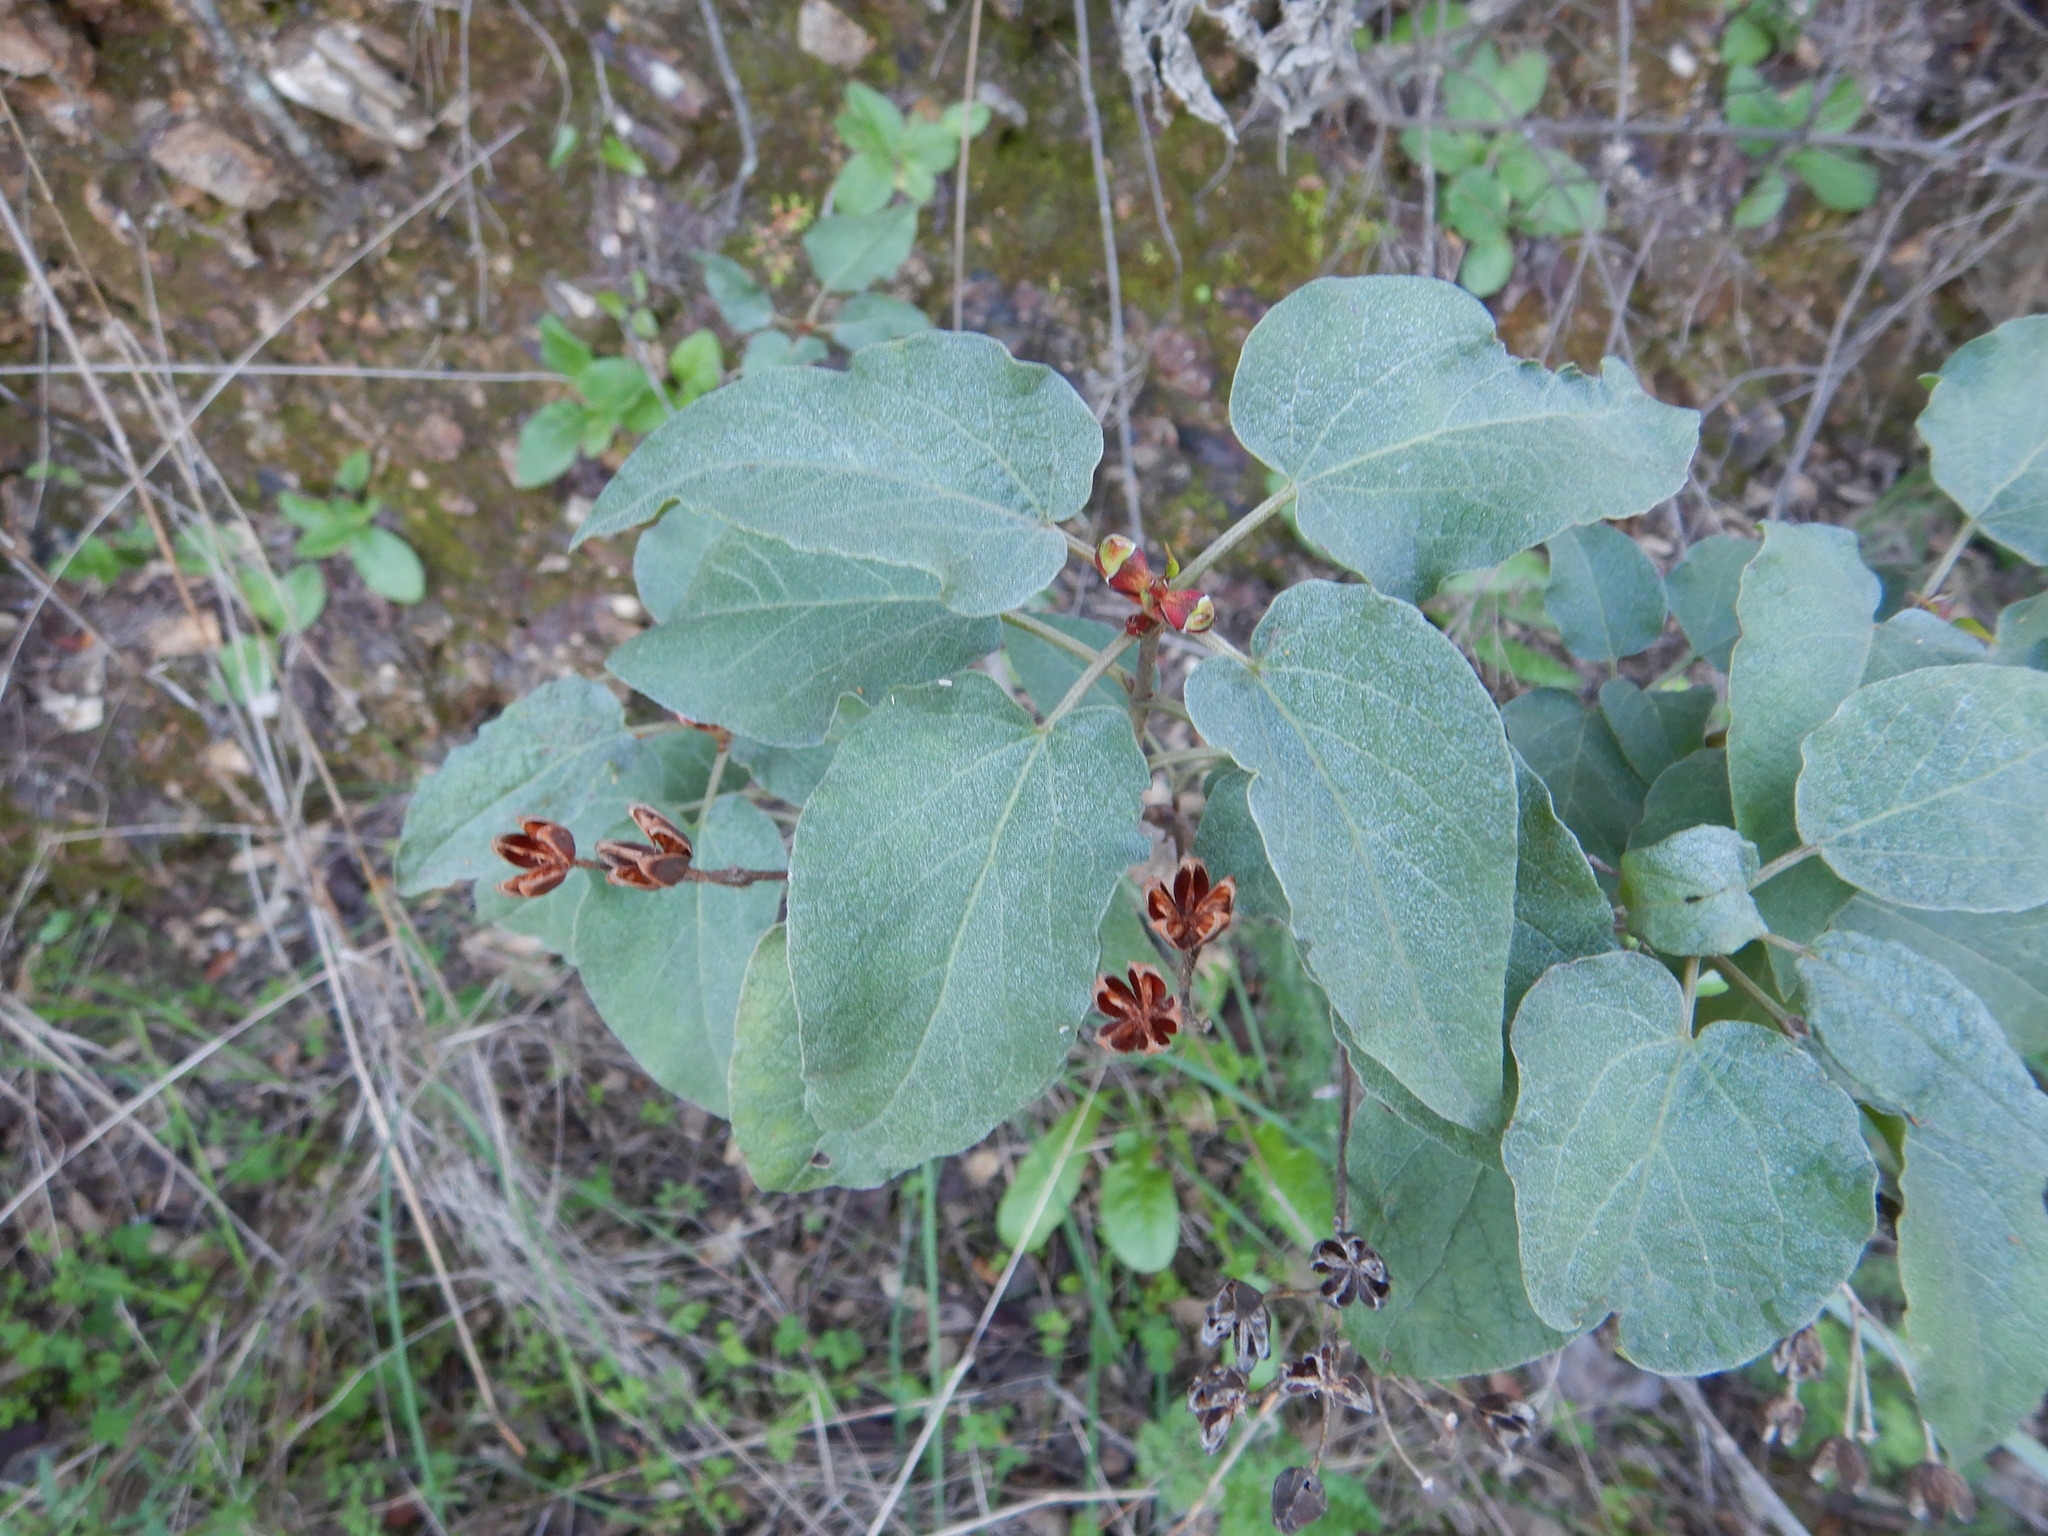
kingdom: Plantae
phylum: Tracheophyta
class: Magnoliopsida
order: Malvales
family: Cistaceae
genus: Cistus
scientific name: Cistus populifolius
